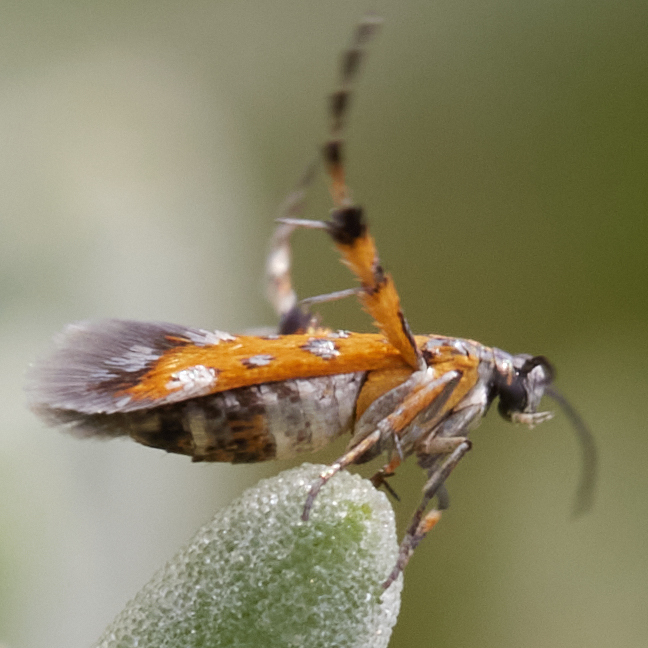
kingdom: Animalia
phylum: Arthropoda
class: Insecta
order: Lepidoptera
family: Heliodinidae
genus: Heliodines
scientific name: Heliodines
